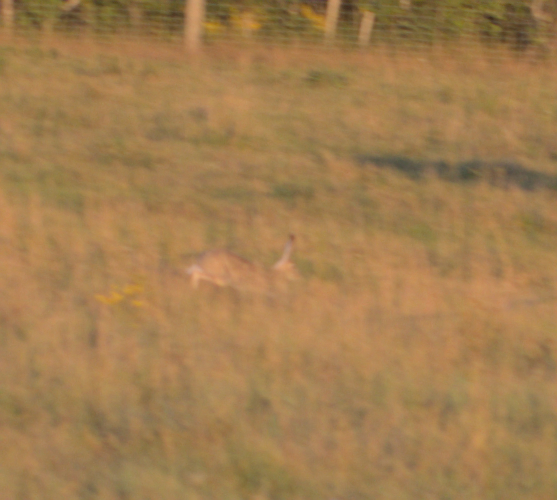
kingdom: Animalia
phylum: Chordata
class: Mammalia
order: Lagomorpha
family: Leporidae
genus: Lepus
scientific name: Lepus townsendii
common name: White-tailed jackrabbit
